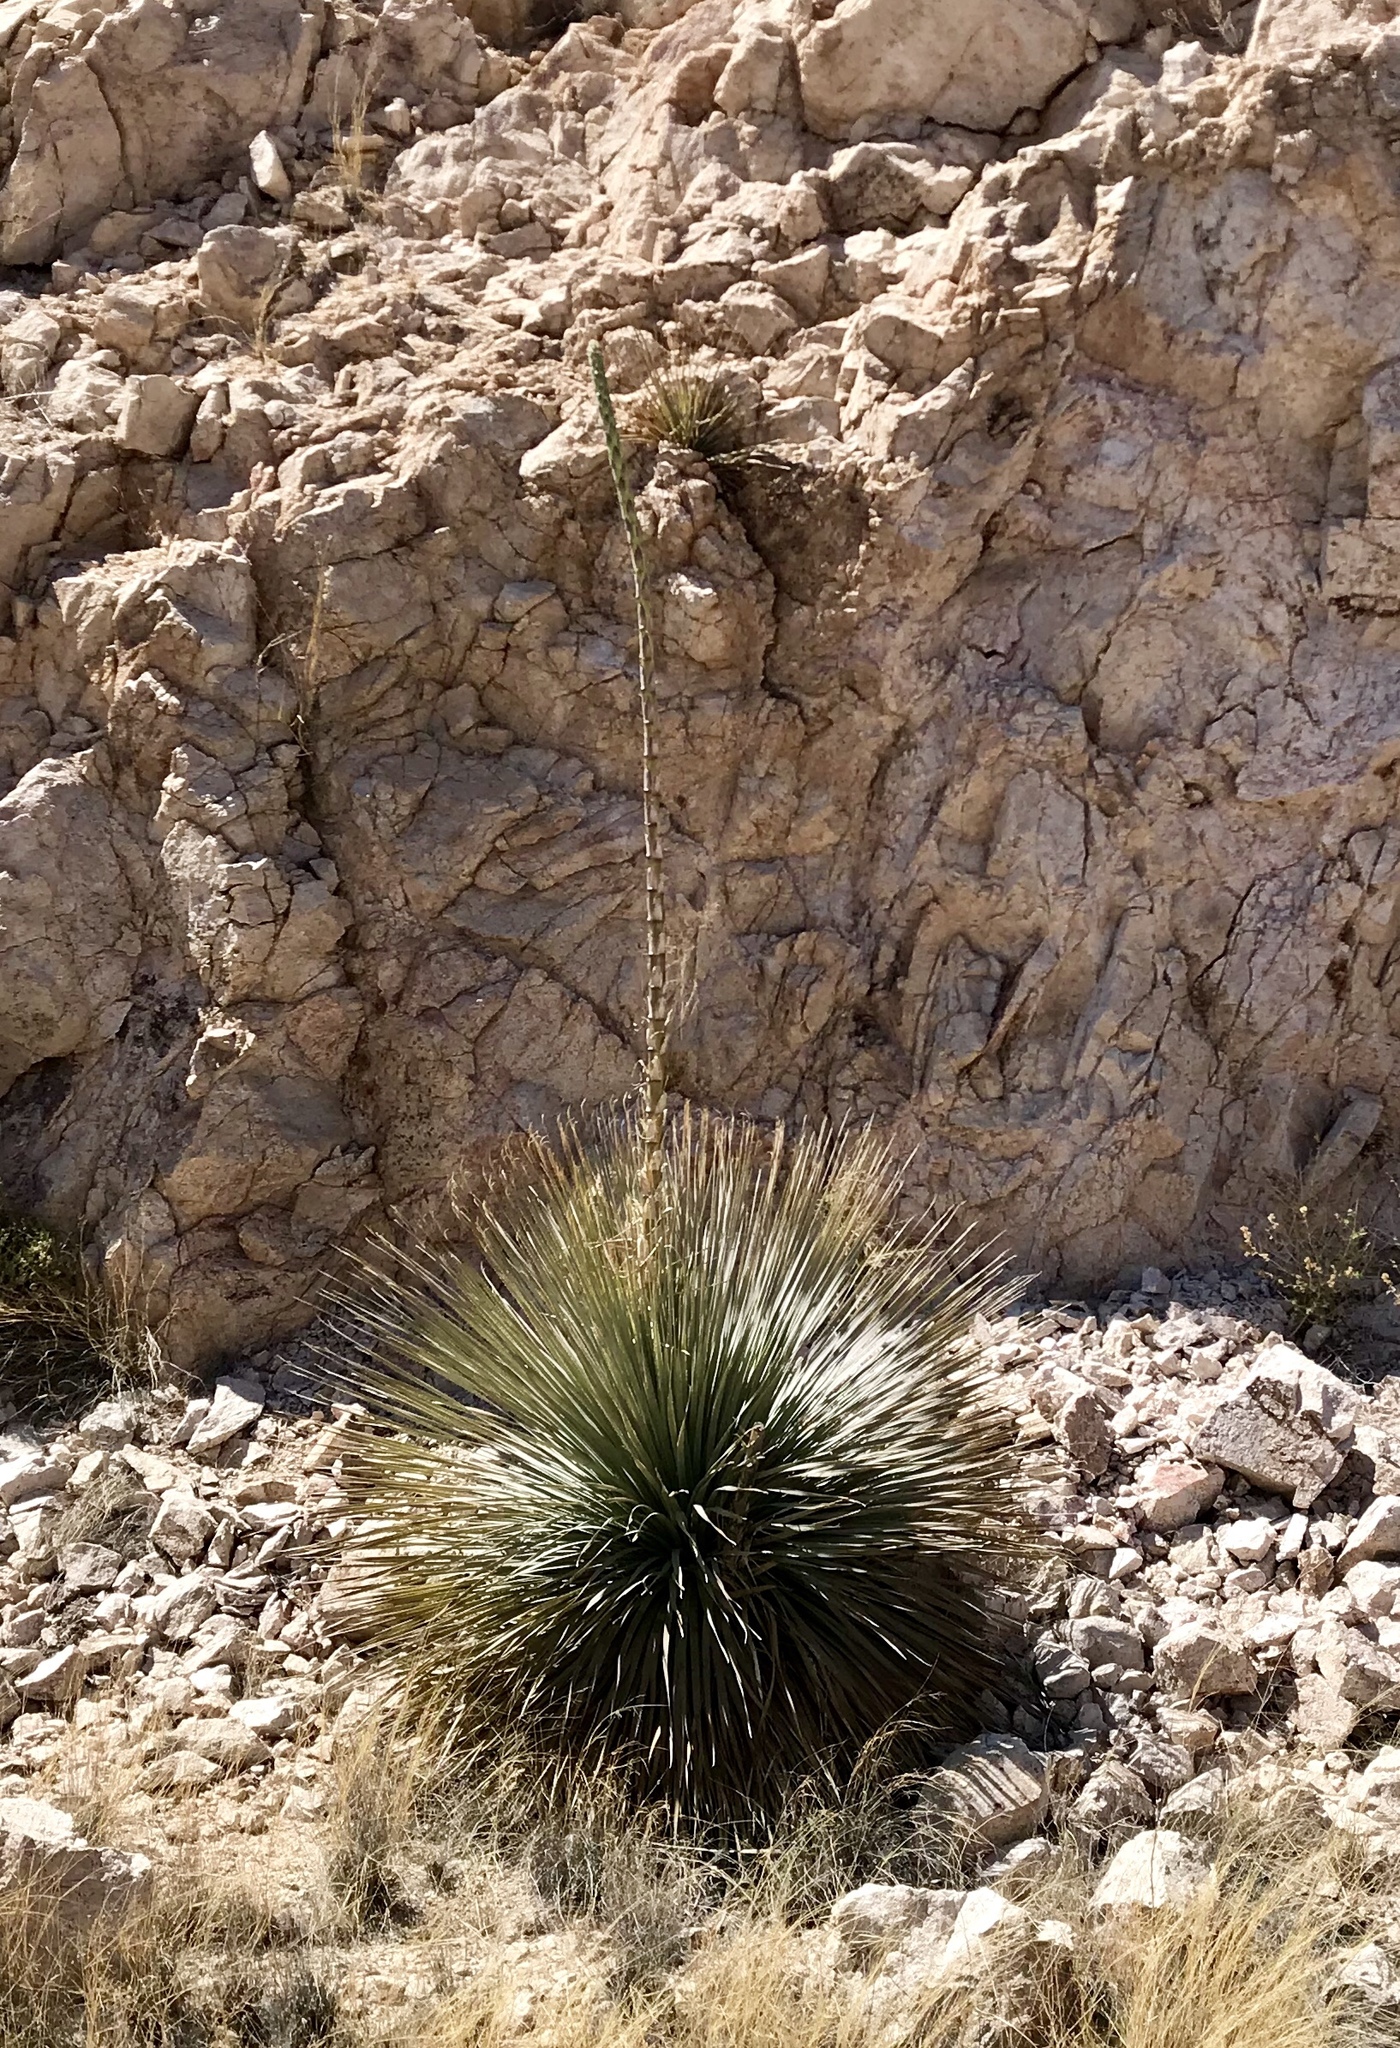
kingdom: Plantae
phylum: Tracheophyta
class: Liliopsida
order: Asparagales
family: Asparagaceae
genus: Dasylirion
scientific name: Dasylirion wheeleri
